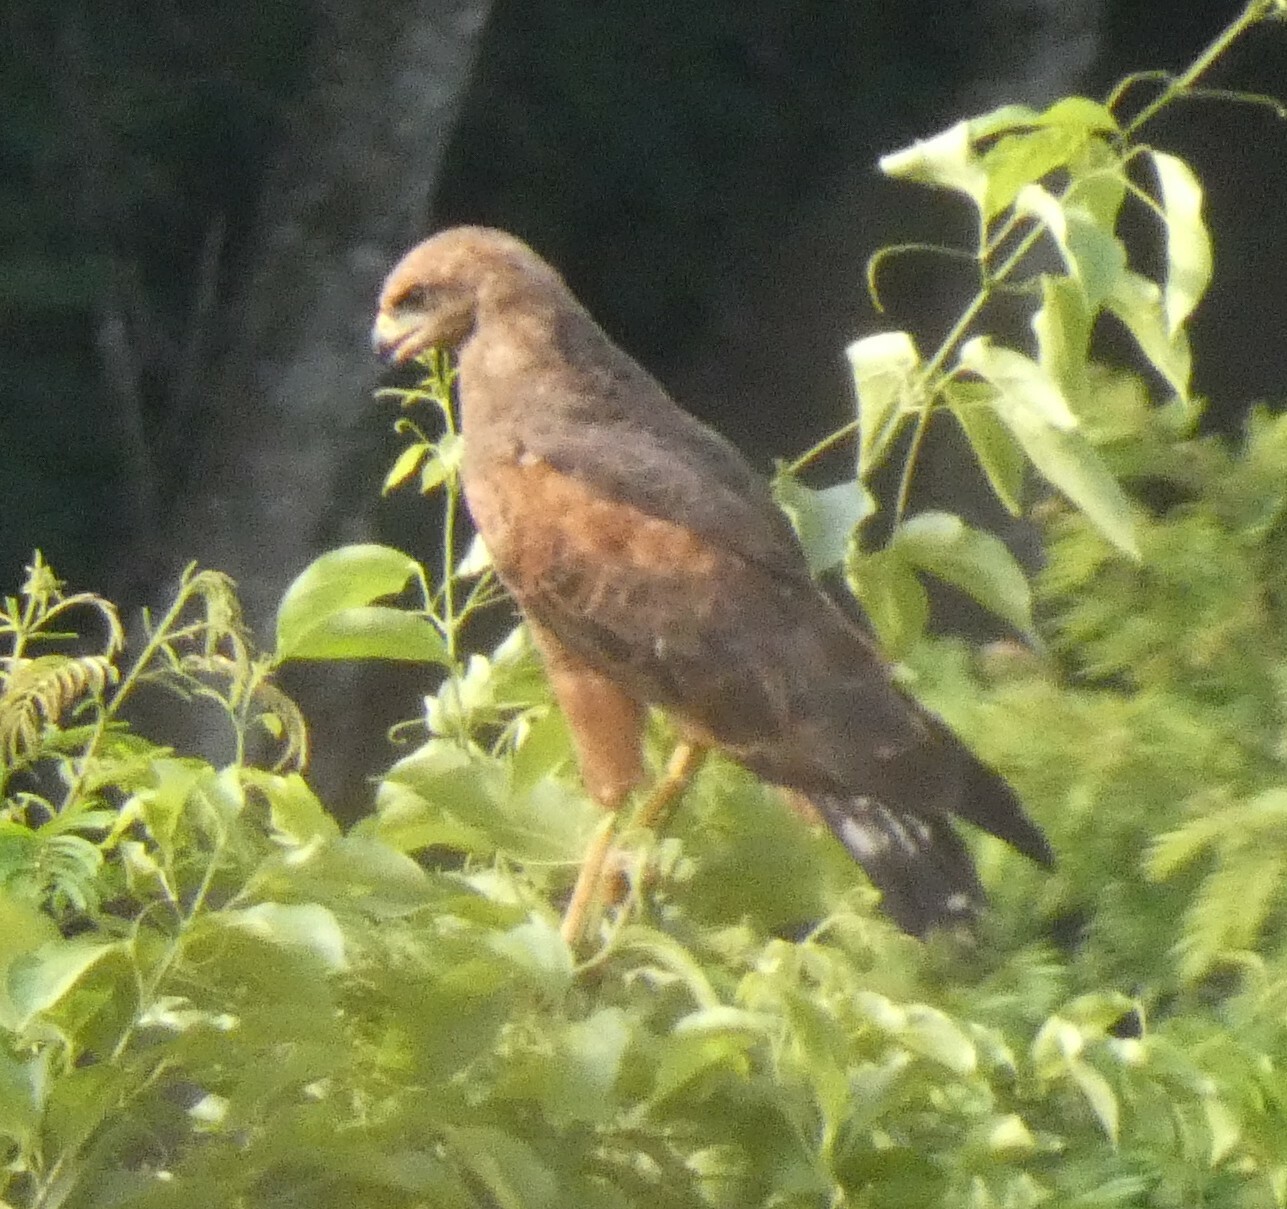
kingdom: Animalia
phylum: Chordata
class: Aves
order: Accipitriformes
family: Accipitridae
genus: Buteogallus
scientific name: Buteogallus meridionalis
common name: Savanna hawk
